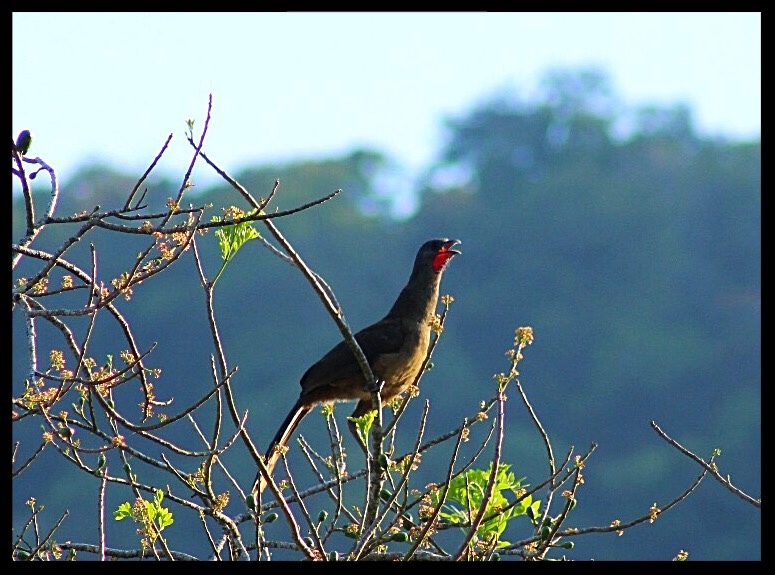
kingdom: Animalia
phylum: Chordata
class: Aves
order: Galliformes
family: Cracidae
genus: Ortalis
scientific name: Ortalis vetula
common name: Plain chachalaca
